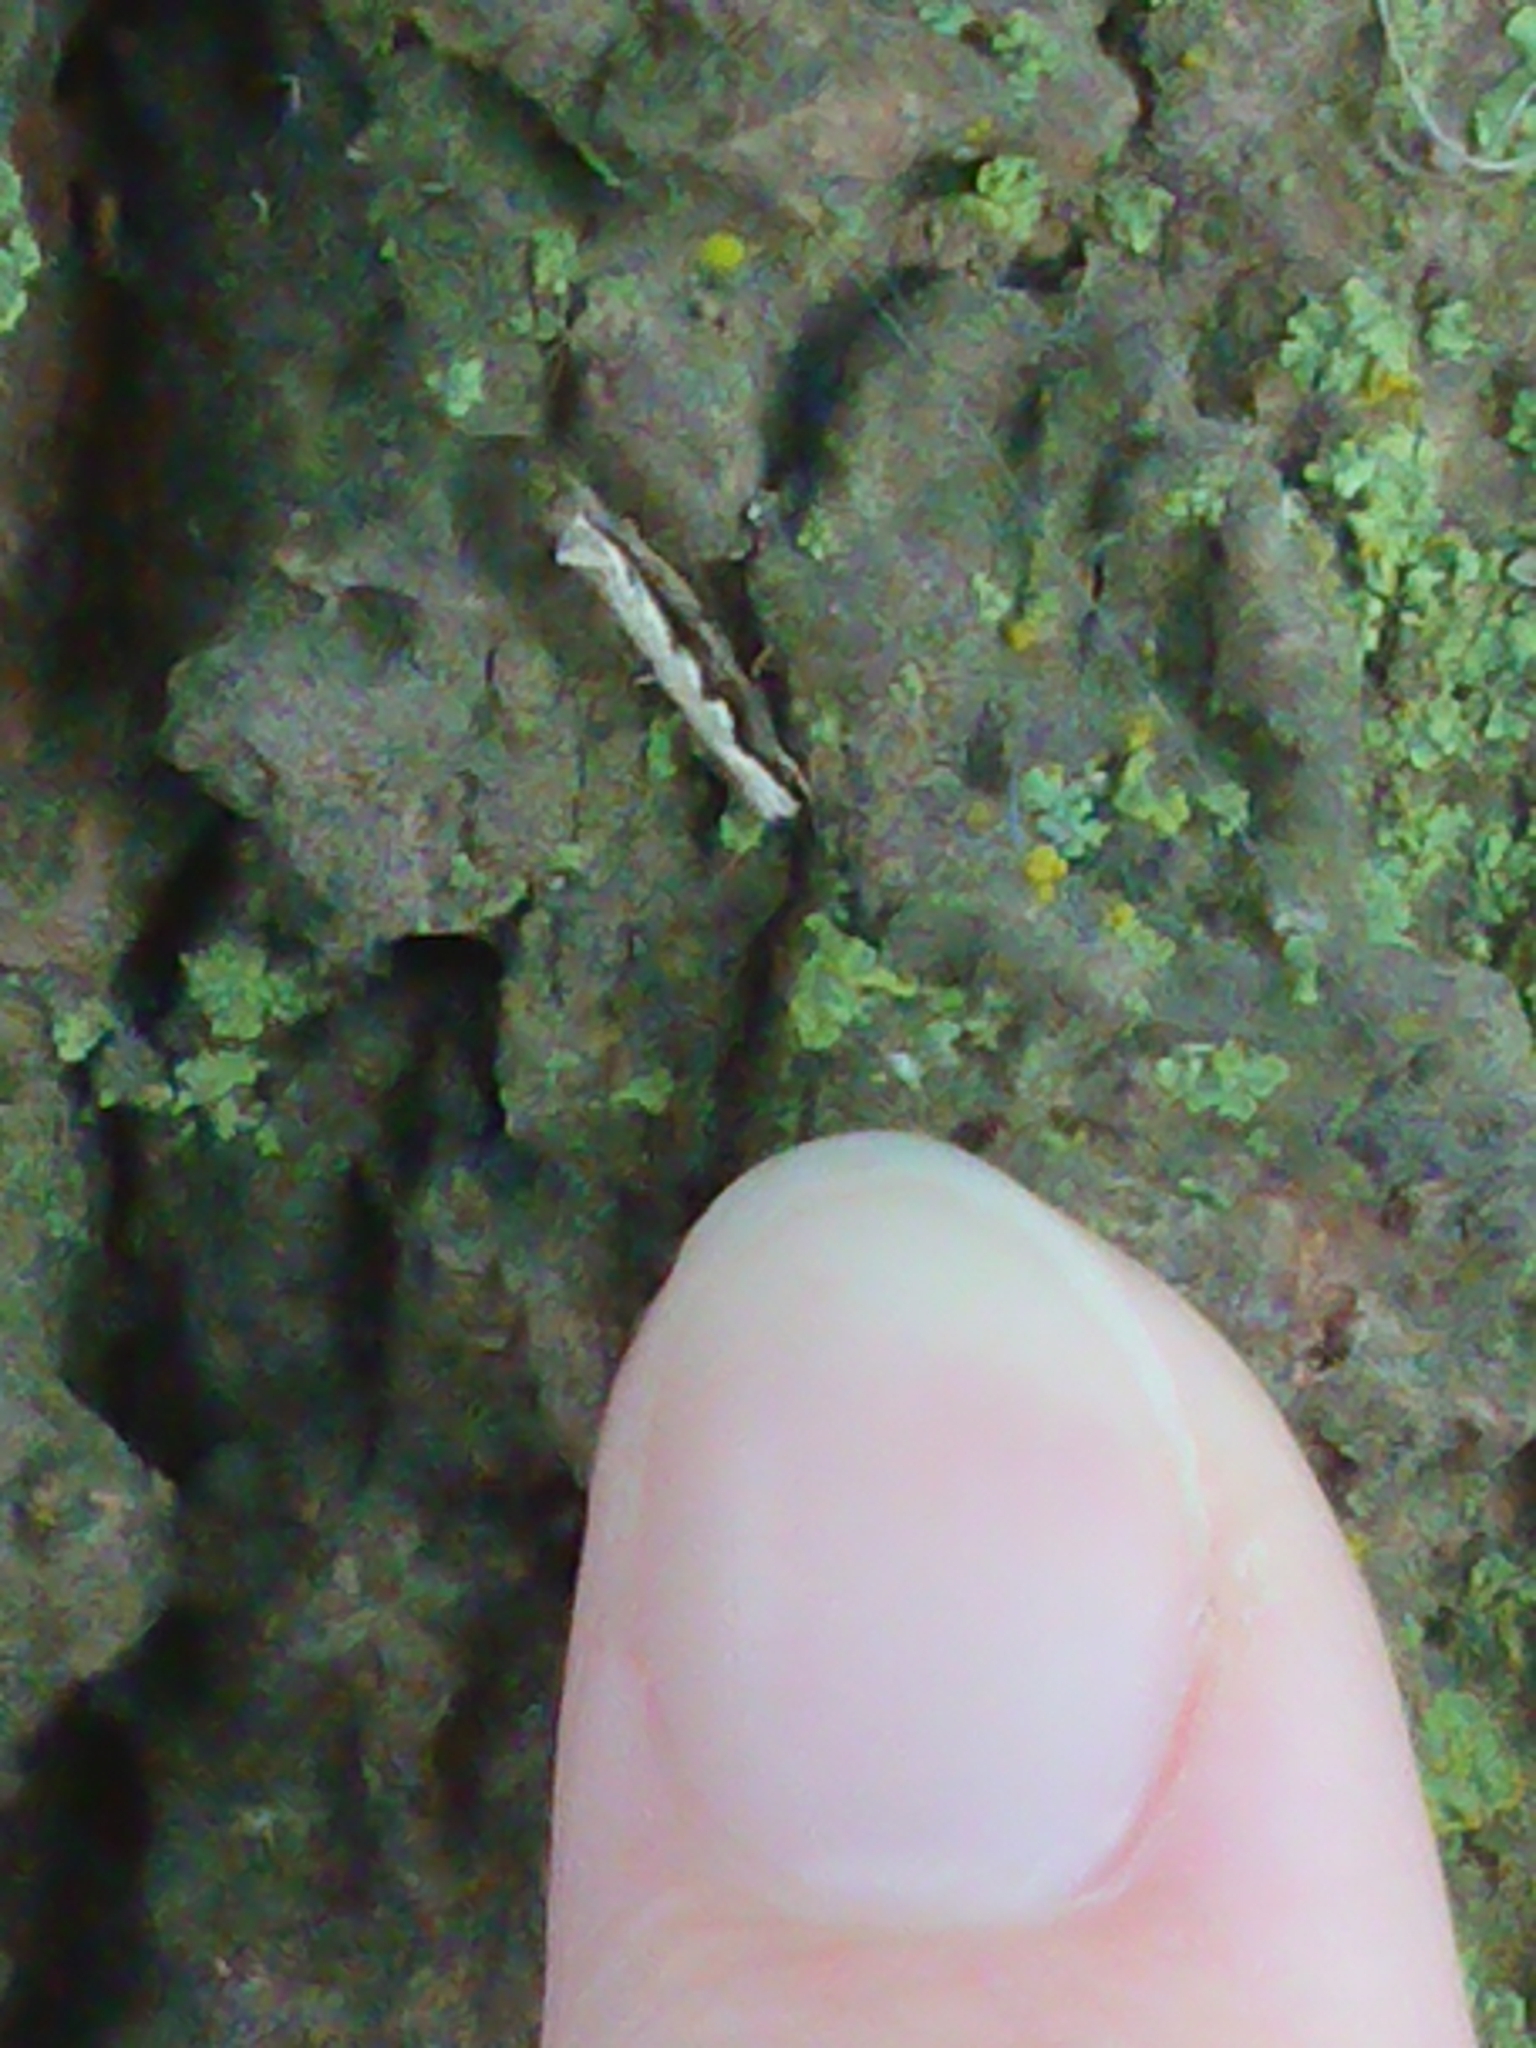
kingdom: Animalia
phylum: Arthropoda
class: Insecta
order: Lepidoptera
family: Tineidae
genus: Erechthias
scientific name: Erechthias fulguritella
